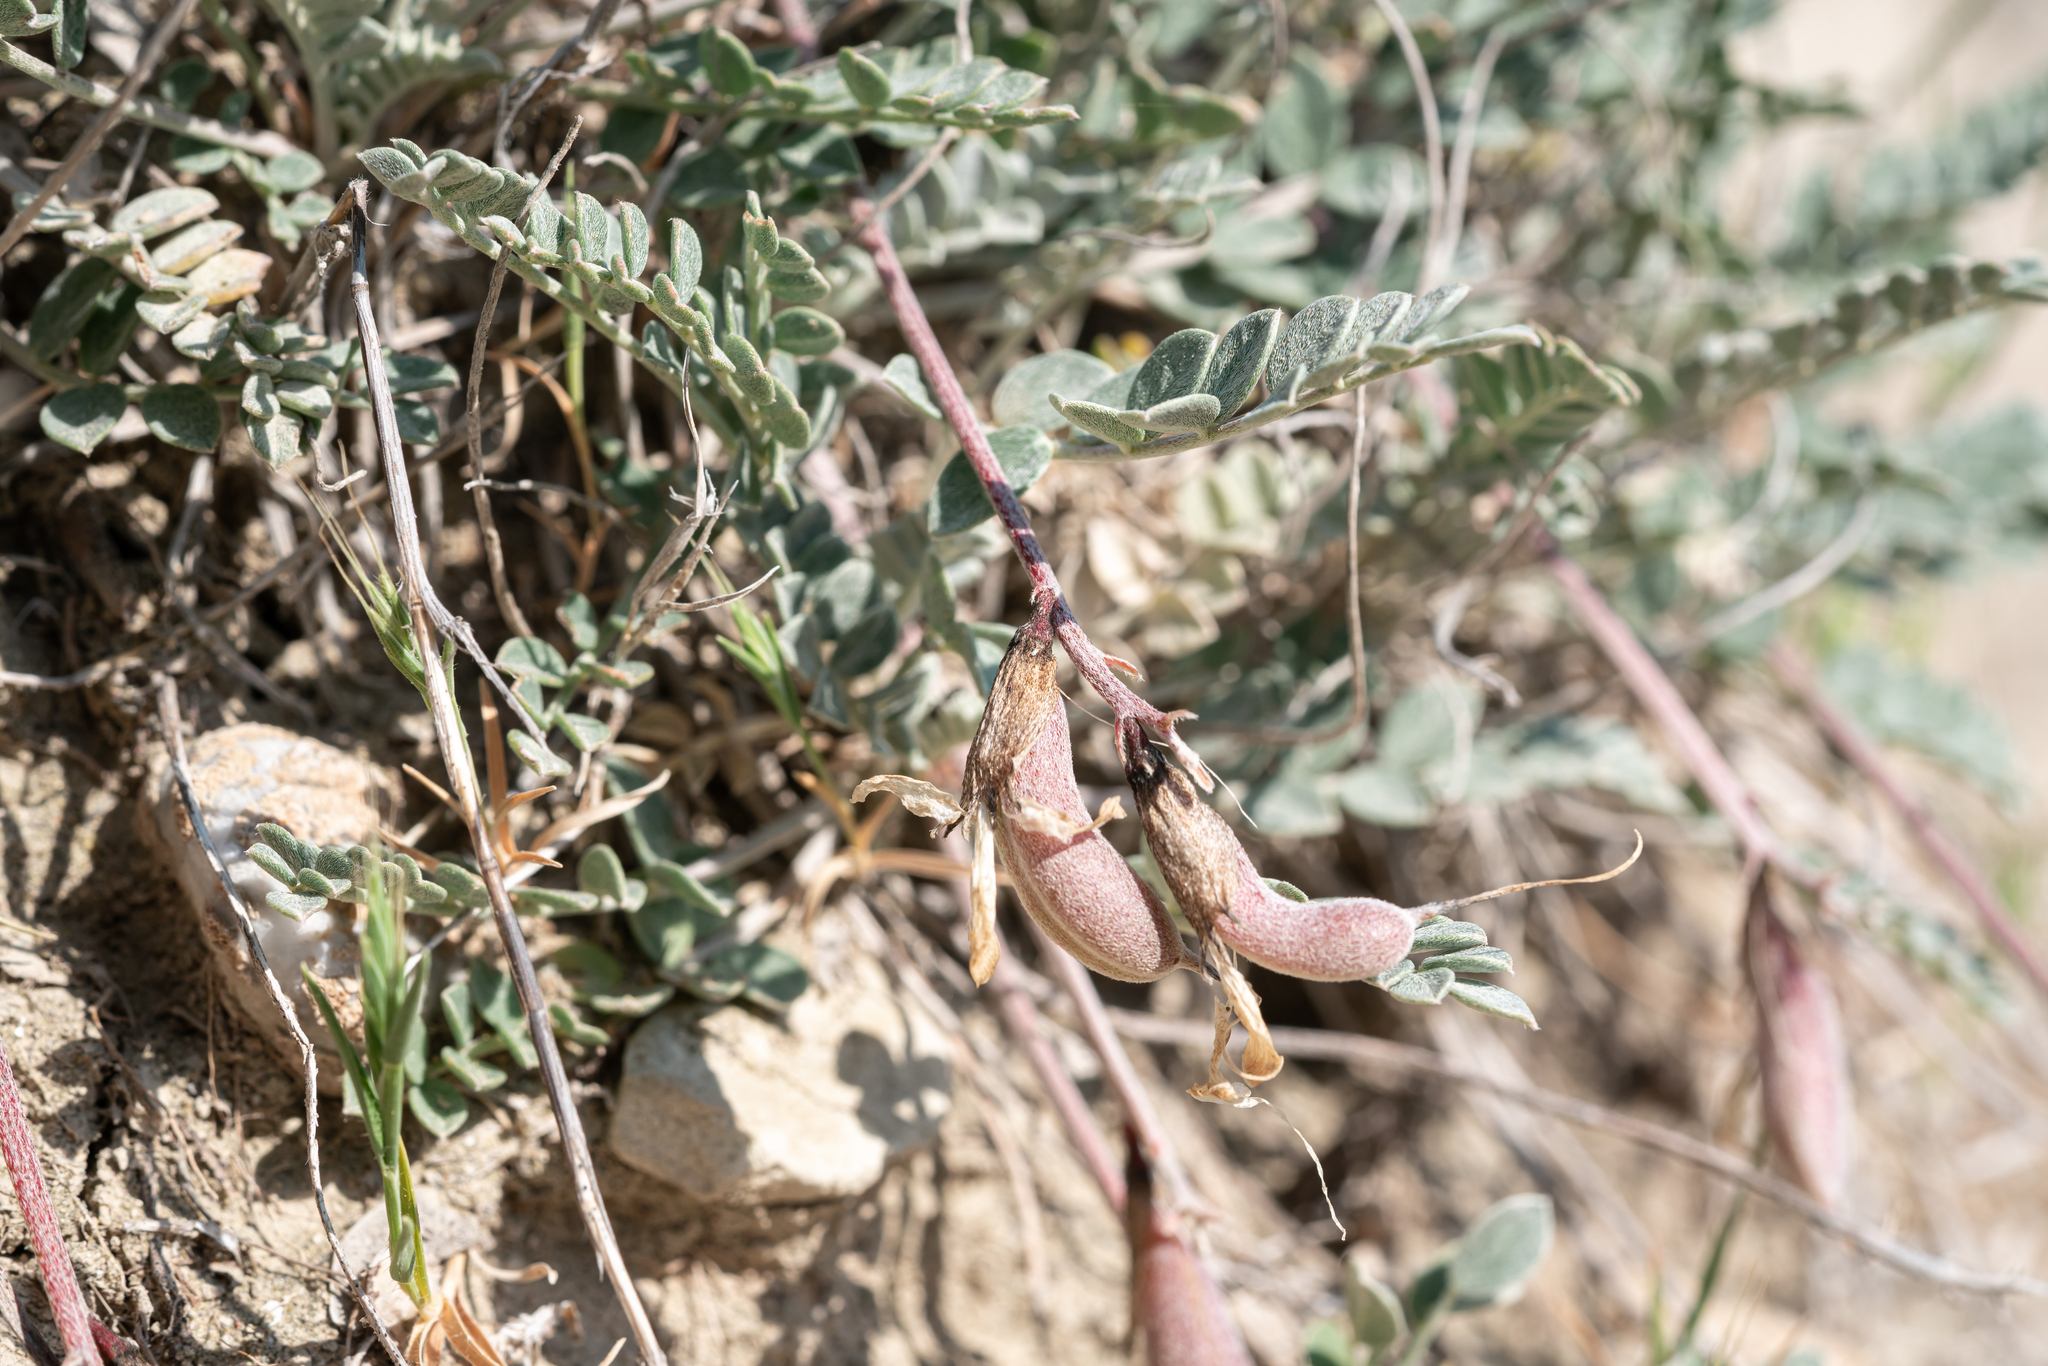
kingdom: Plantae
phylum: Tracheophyta
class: Magnoliopsida
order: Fabales
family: Fabaceae
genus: Astragalus
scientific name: Astragalus spruneri
